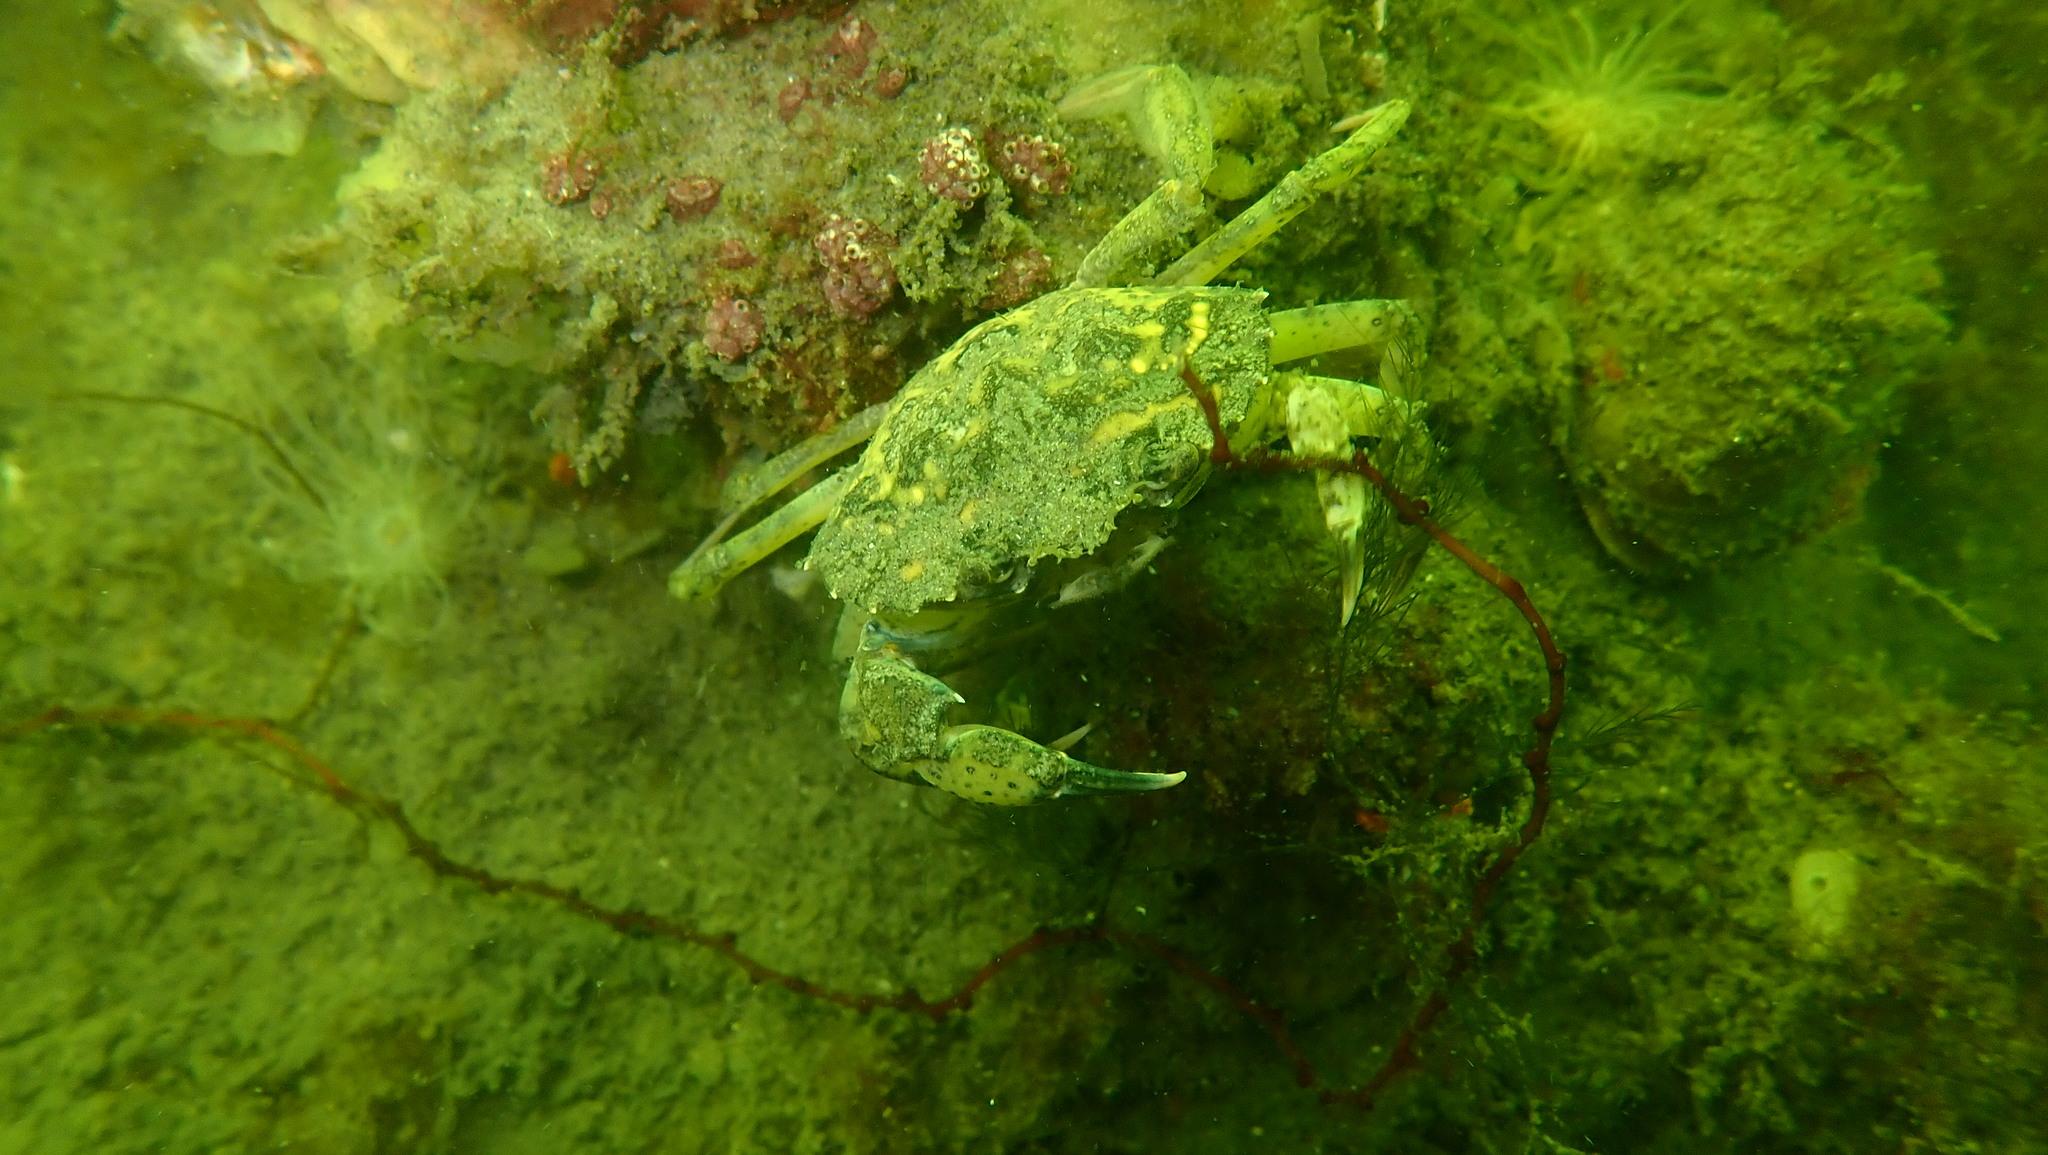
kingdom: Animalia
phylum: Arthropoda
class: Malacostraca
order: Decapoda
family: Carcinidae
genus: Carcinus
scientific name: Carcinus maenas
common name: European green crab
